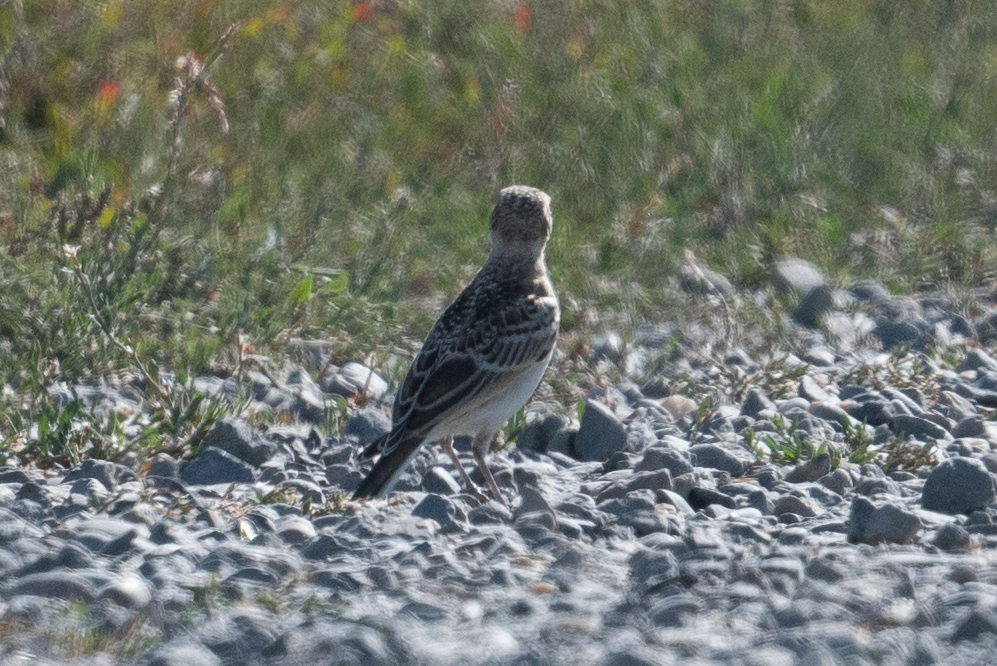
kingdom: Animalia
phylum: Chordata
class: Aves
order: Passeriformes
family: Alaudidae
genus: Eremophila
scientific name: Eremophila alpestris
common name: Horned lark
